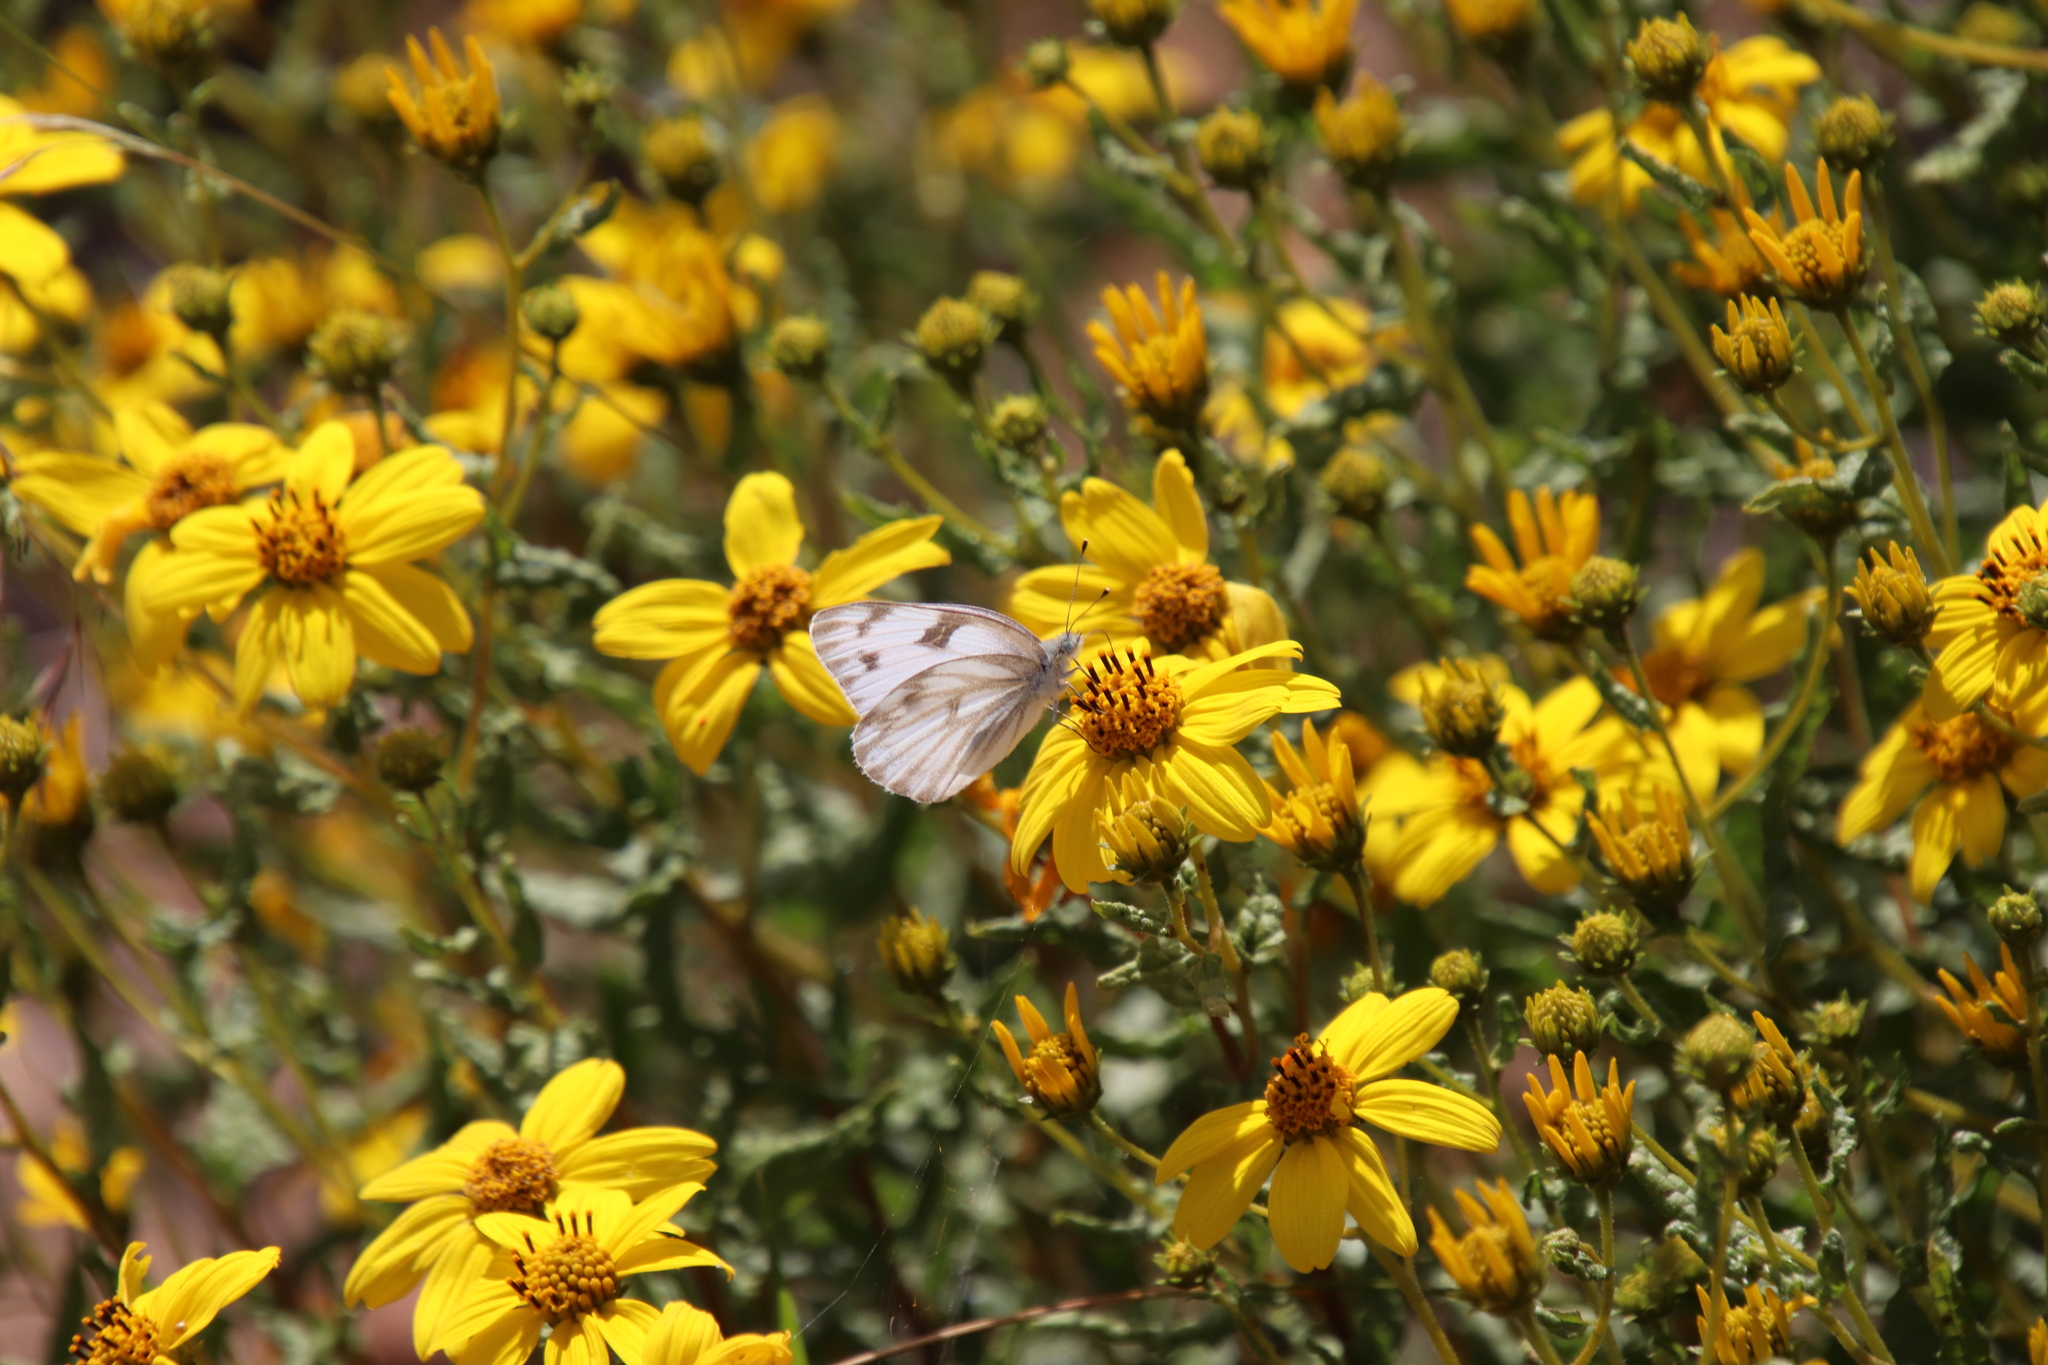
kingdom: Animalia
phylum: Arthropoda
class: Insecta
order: Lepidoptera
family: Pieridae
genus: Pontia
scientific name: Pontia protodice
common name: Checkered white
